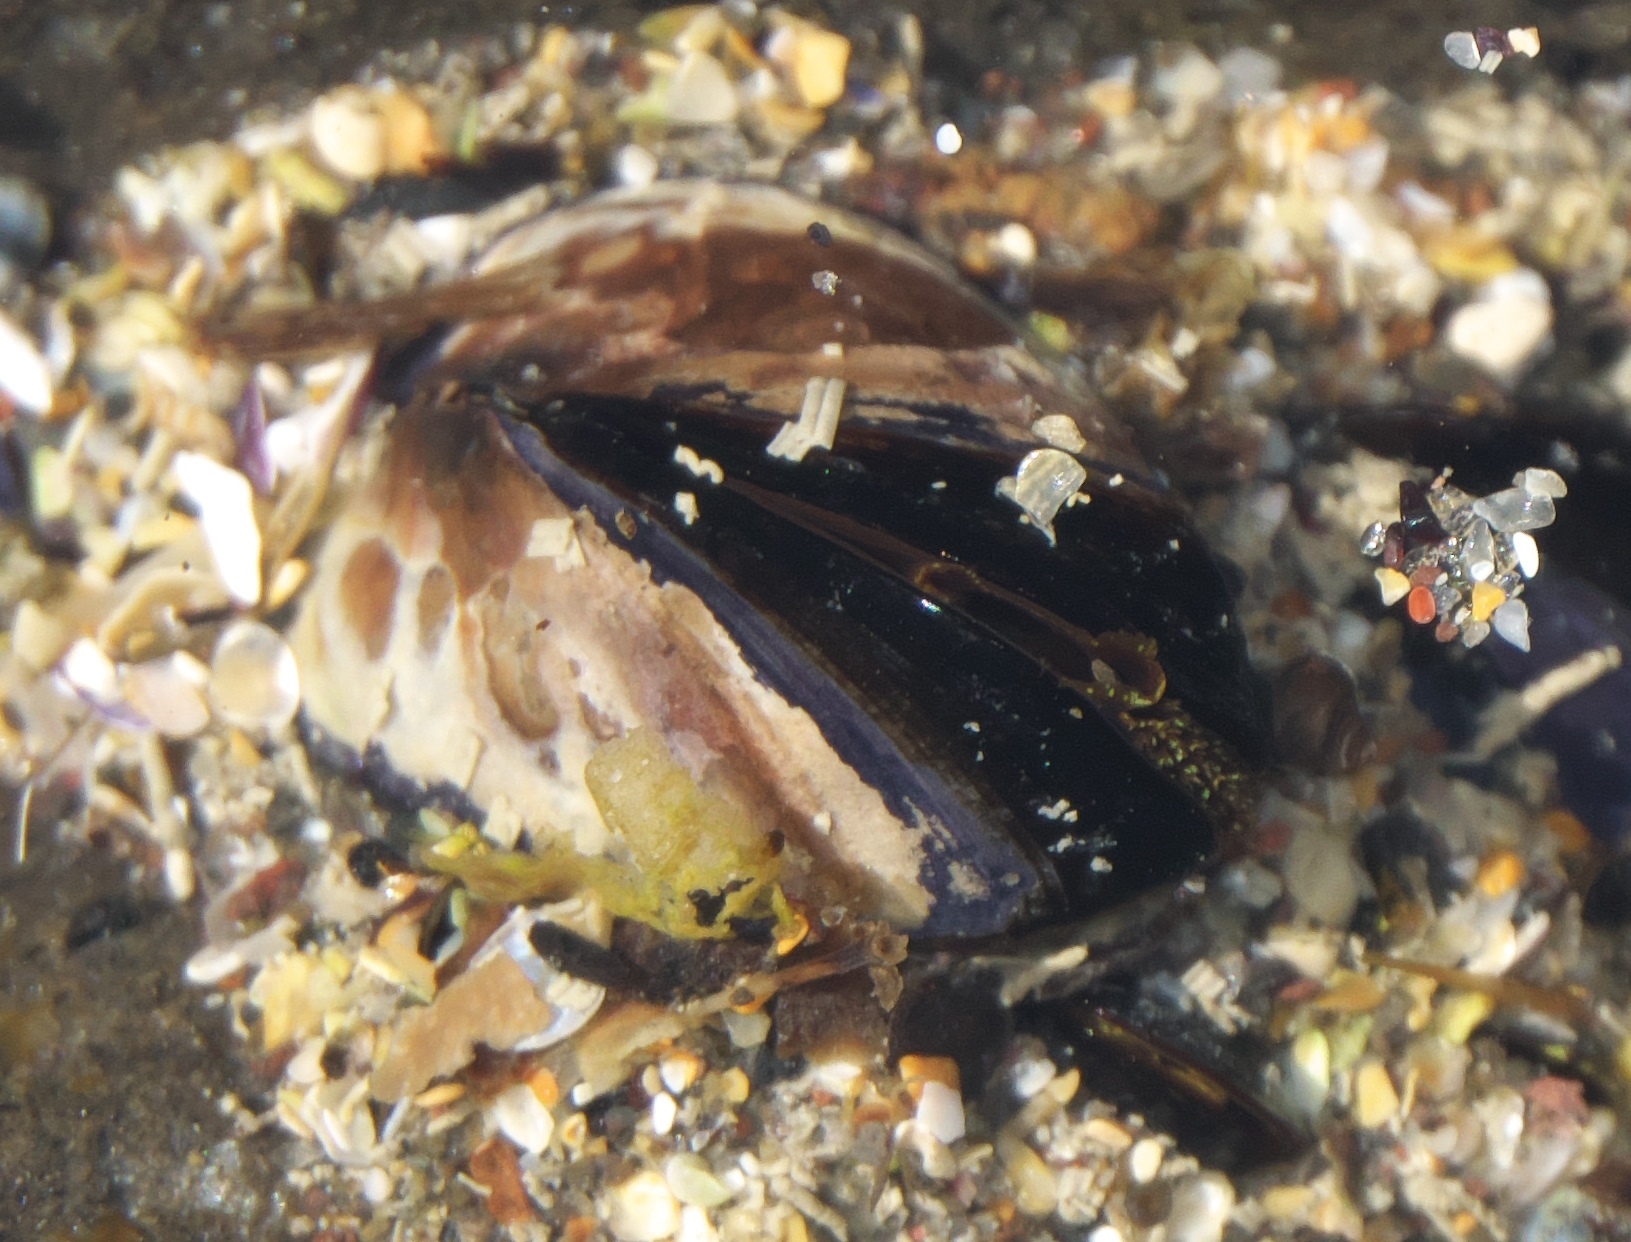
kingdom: Animalia
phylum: Mollusca
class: Bivalvia
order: Mytilida
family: Mytilidae
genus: Xenostrobus
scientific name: Xenostrobus neozelanicus
